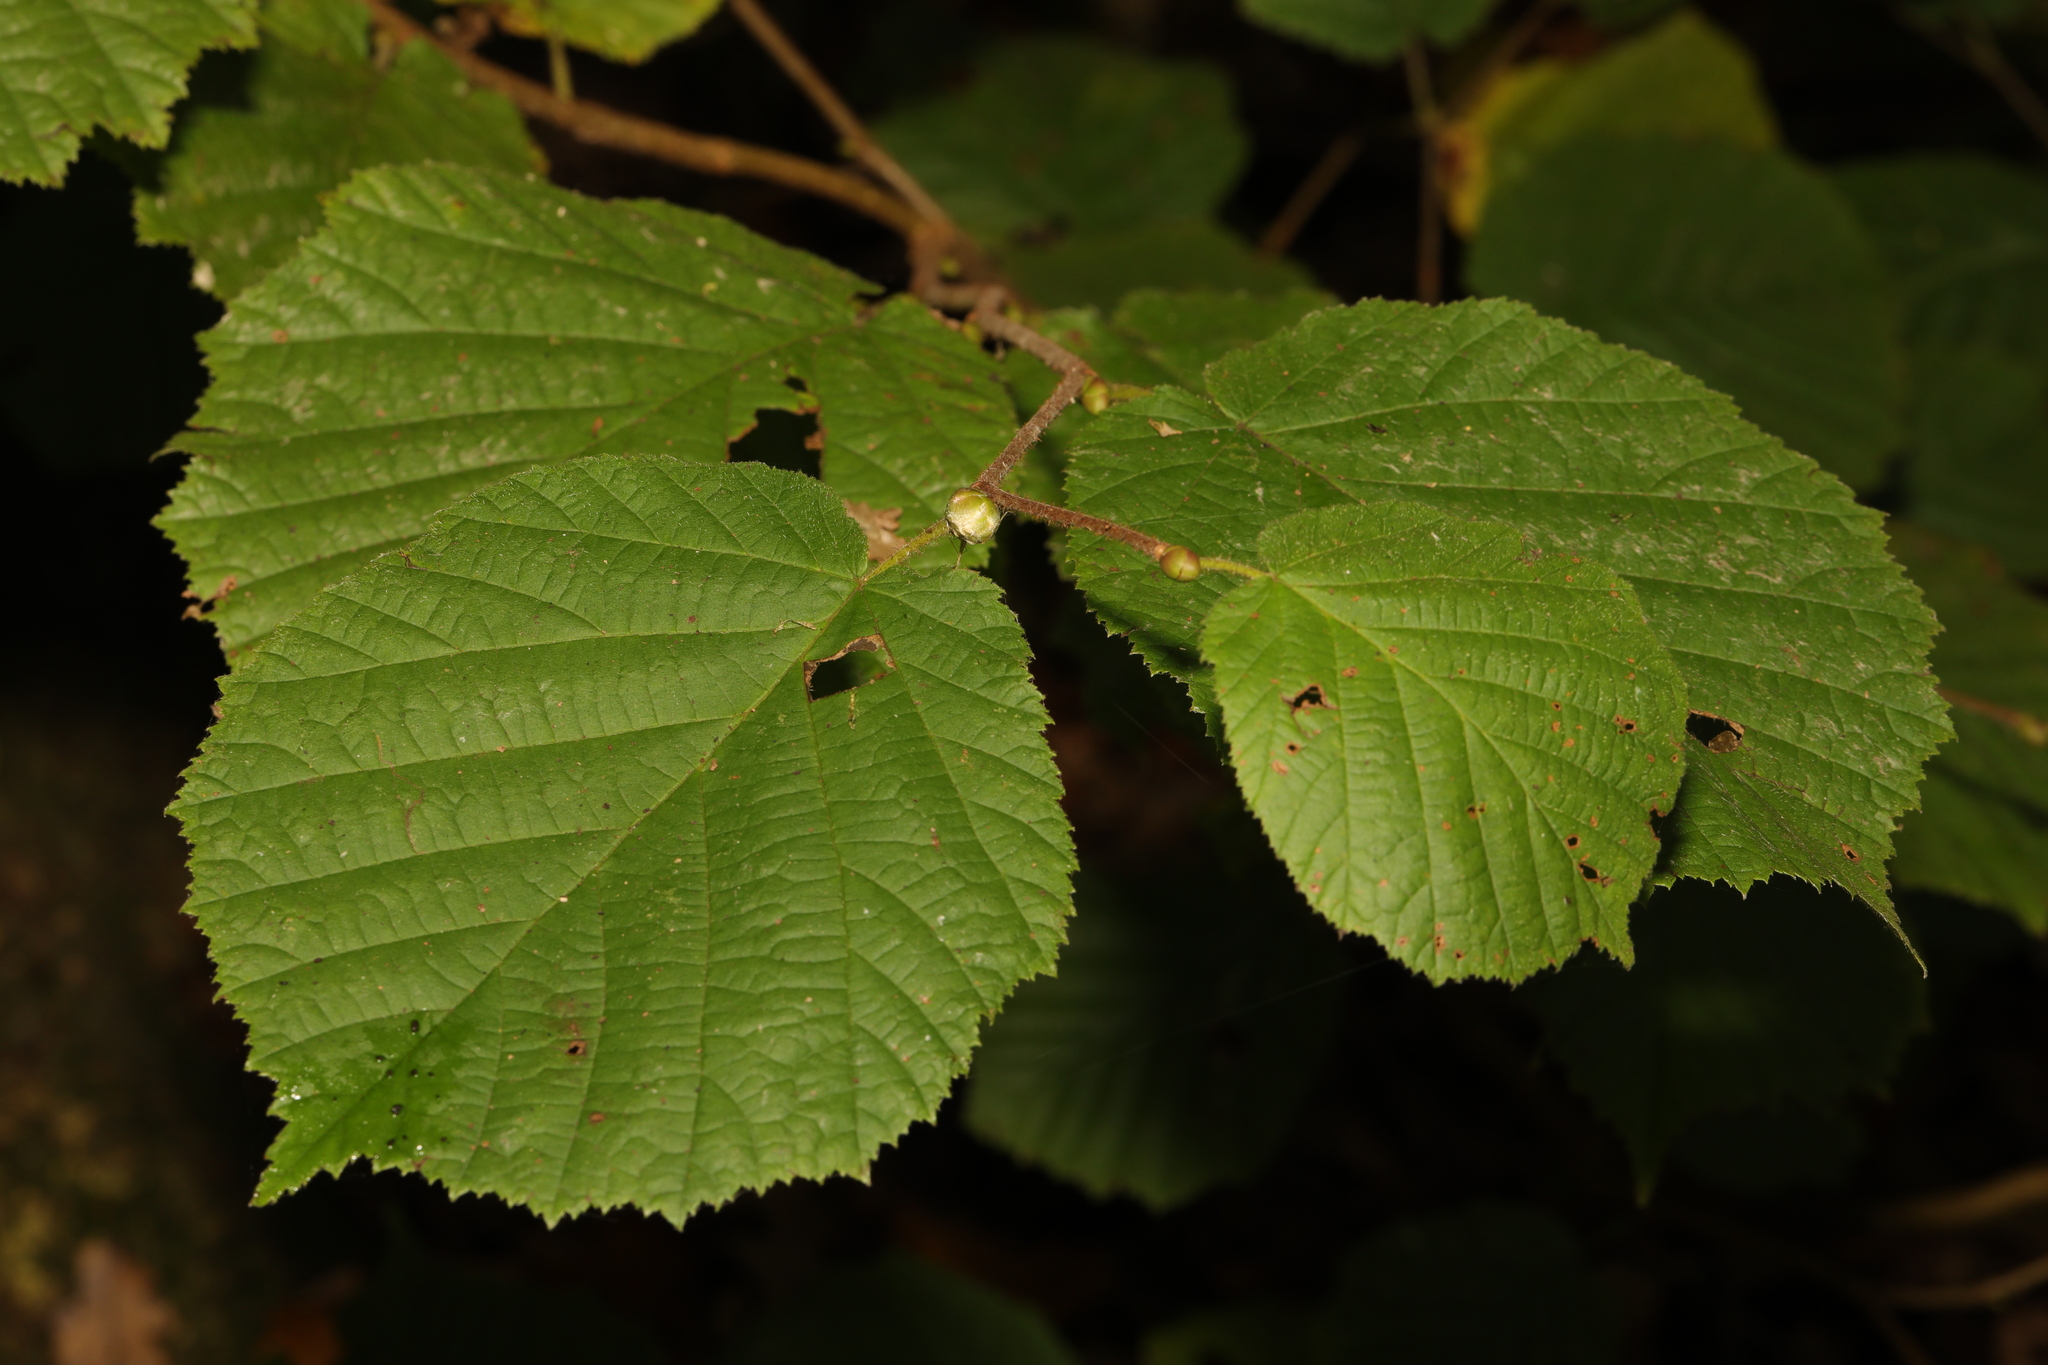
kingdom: Plantae
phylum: Tracheophyta
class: Magnoliopsida
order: Fagales
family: Betulaceae
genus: Corylus
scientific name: Corylus avellana
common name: European hazel
